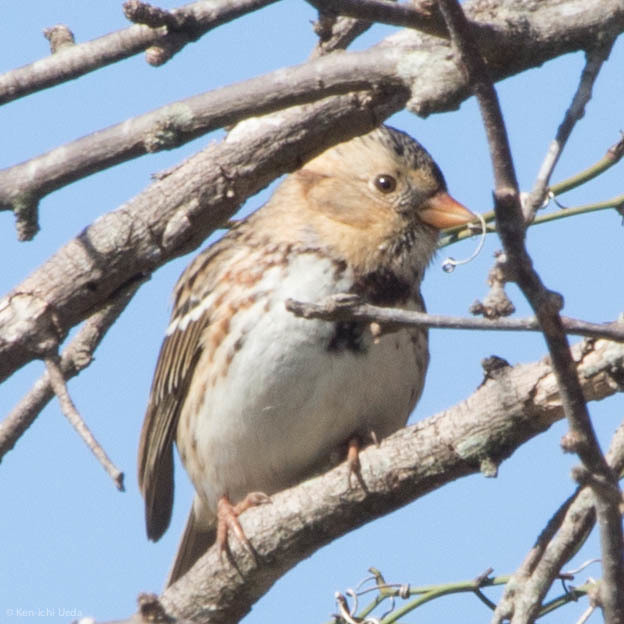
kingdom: Animalia
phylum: Chordata
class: Aves
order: Passeriformes
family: Passerellidae
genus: Zonotrichia
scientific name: Zonotrichia querula
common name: Harris's sparrow
